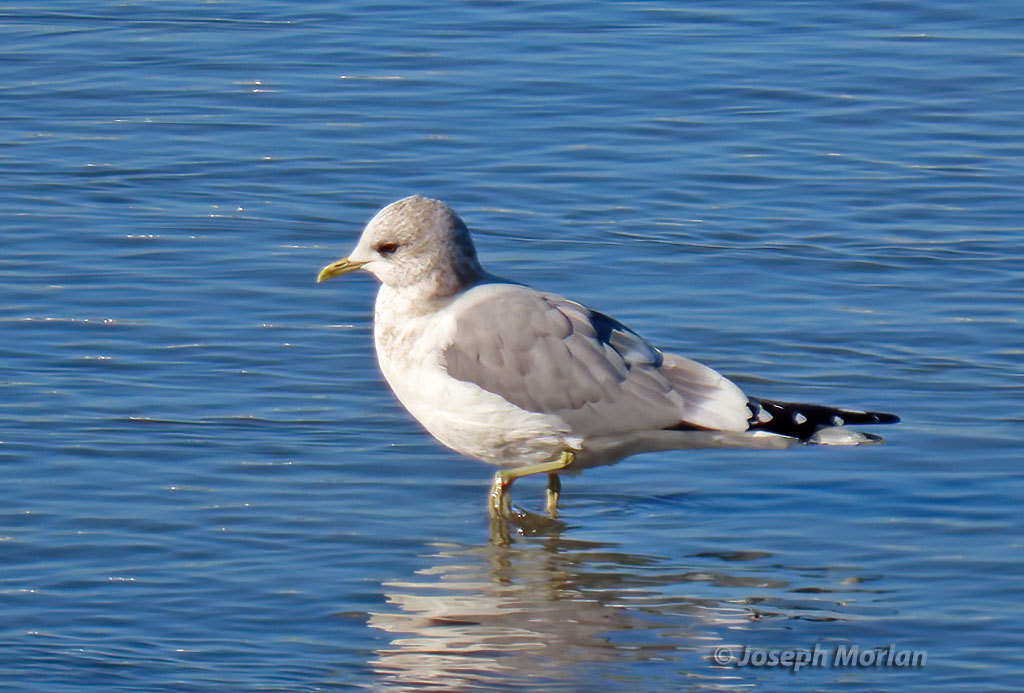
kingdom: Animalia
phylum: Chordata
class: Aves
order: Charadriiformes
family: Laridae
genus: Larus
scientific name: Larus brachyrhynchus
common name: Short-billed gull
